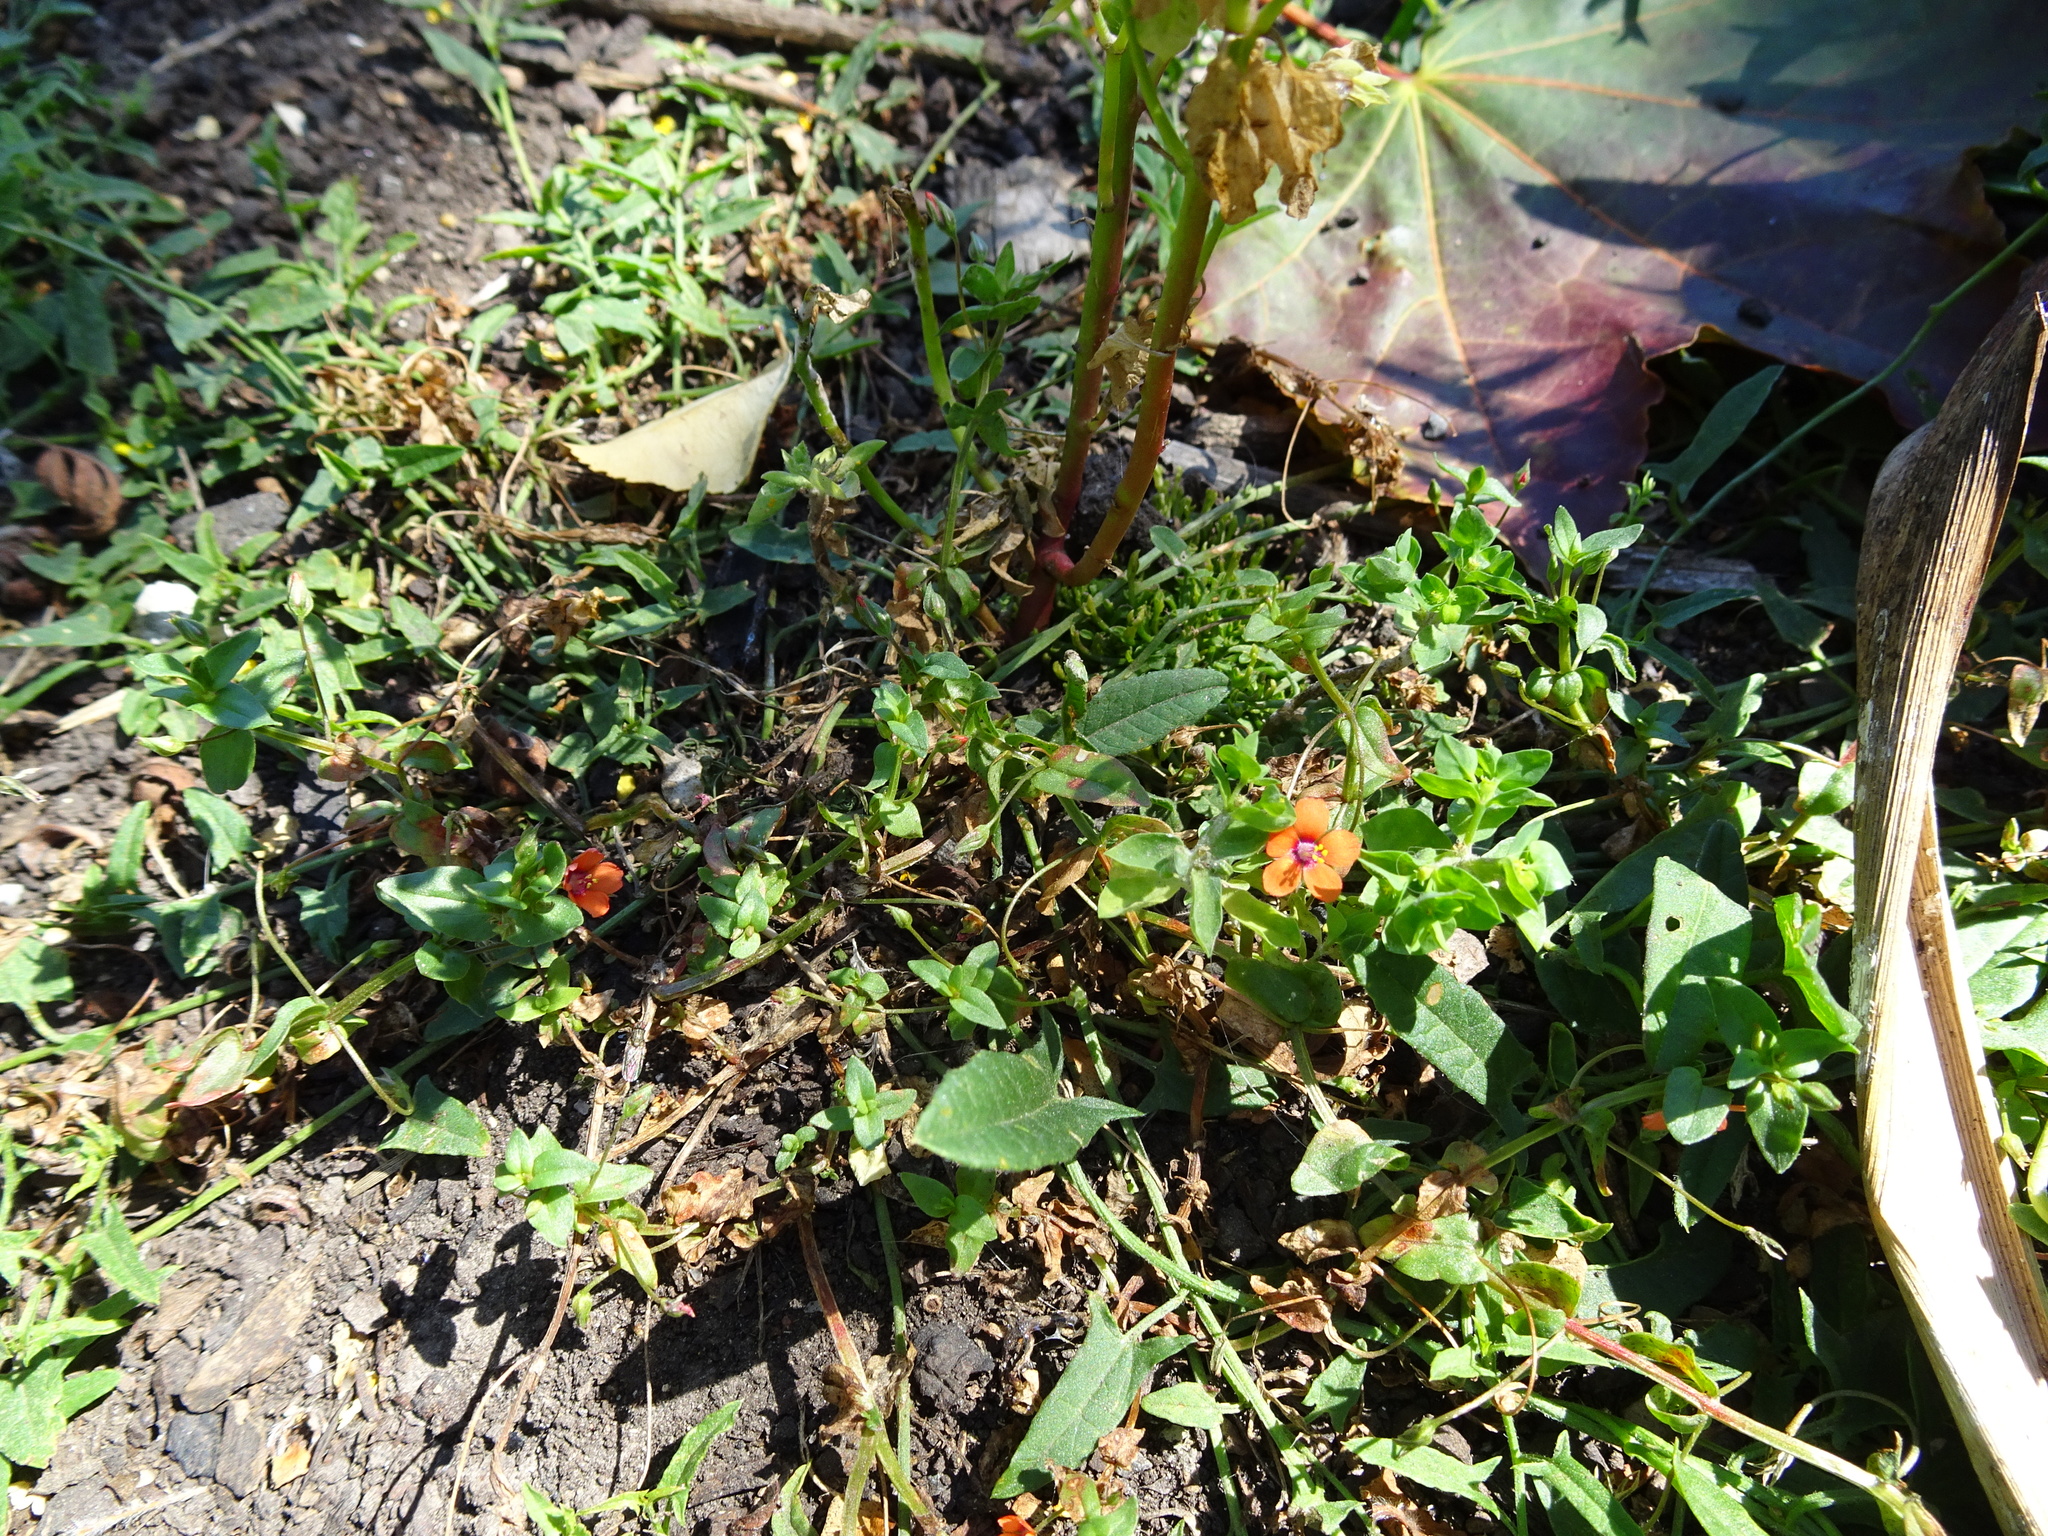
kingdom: Plantae
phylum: Tracheophyta
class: Magnoliopsida
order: Ericales
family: Primulaceae
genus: Lysimachia
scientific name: Lysimachia arvensis
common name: Scarlet pimpernel
